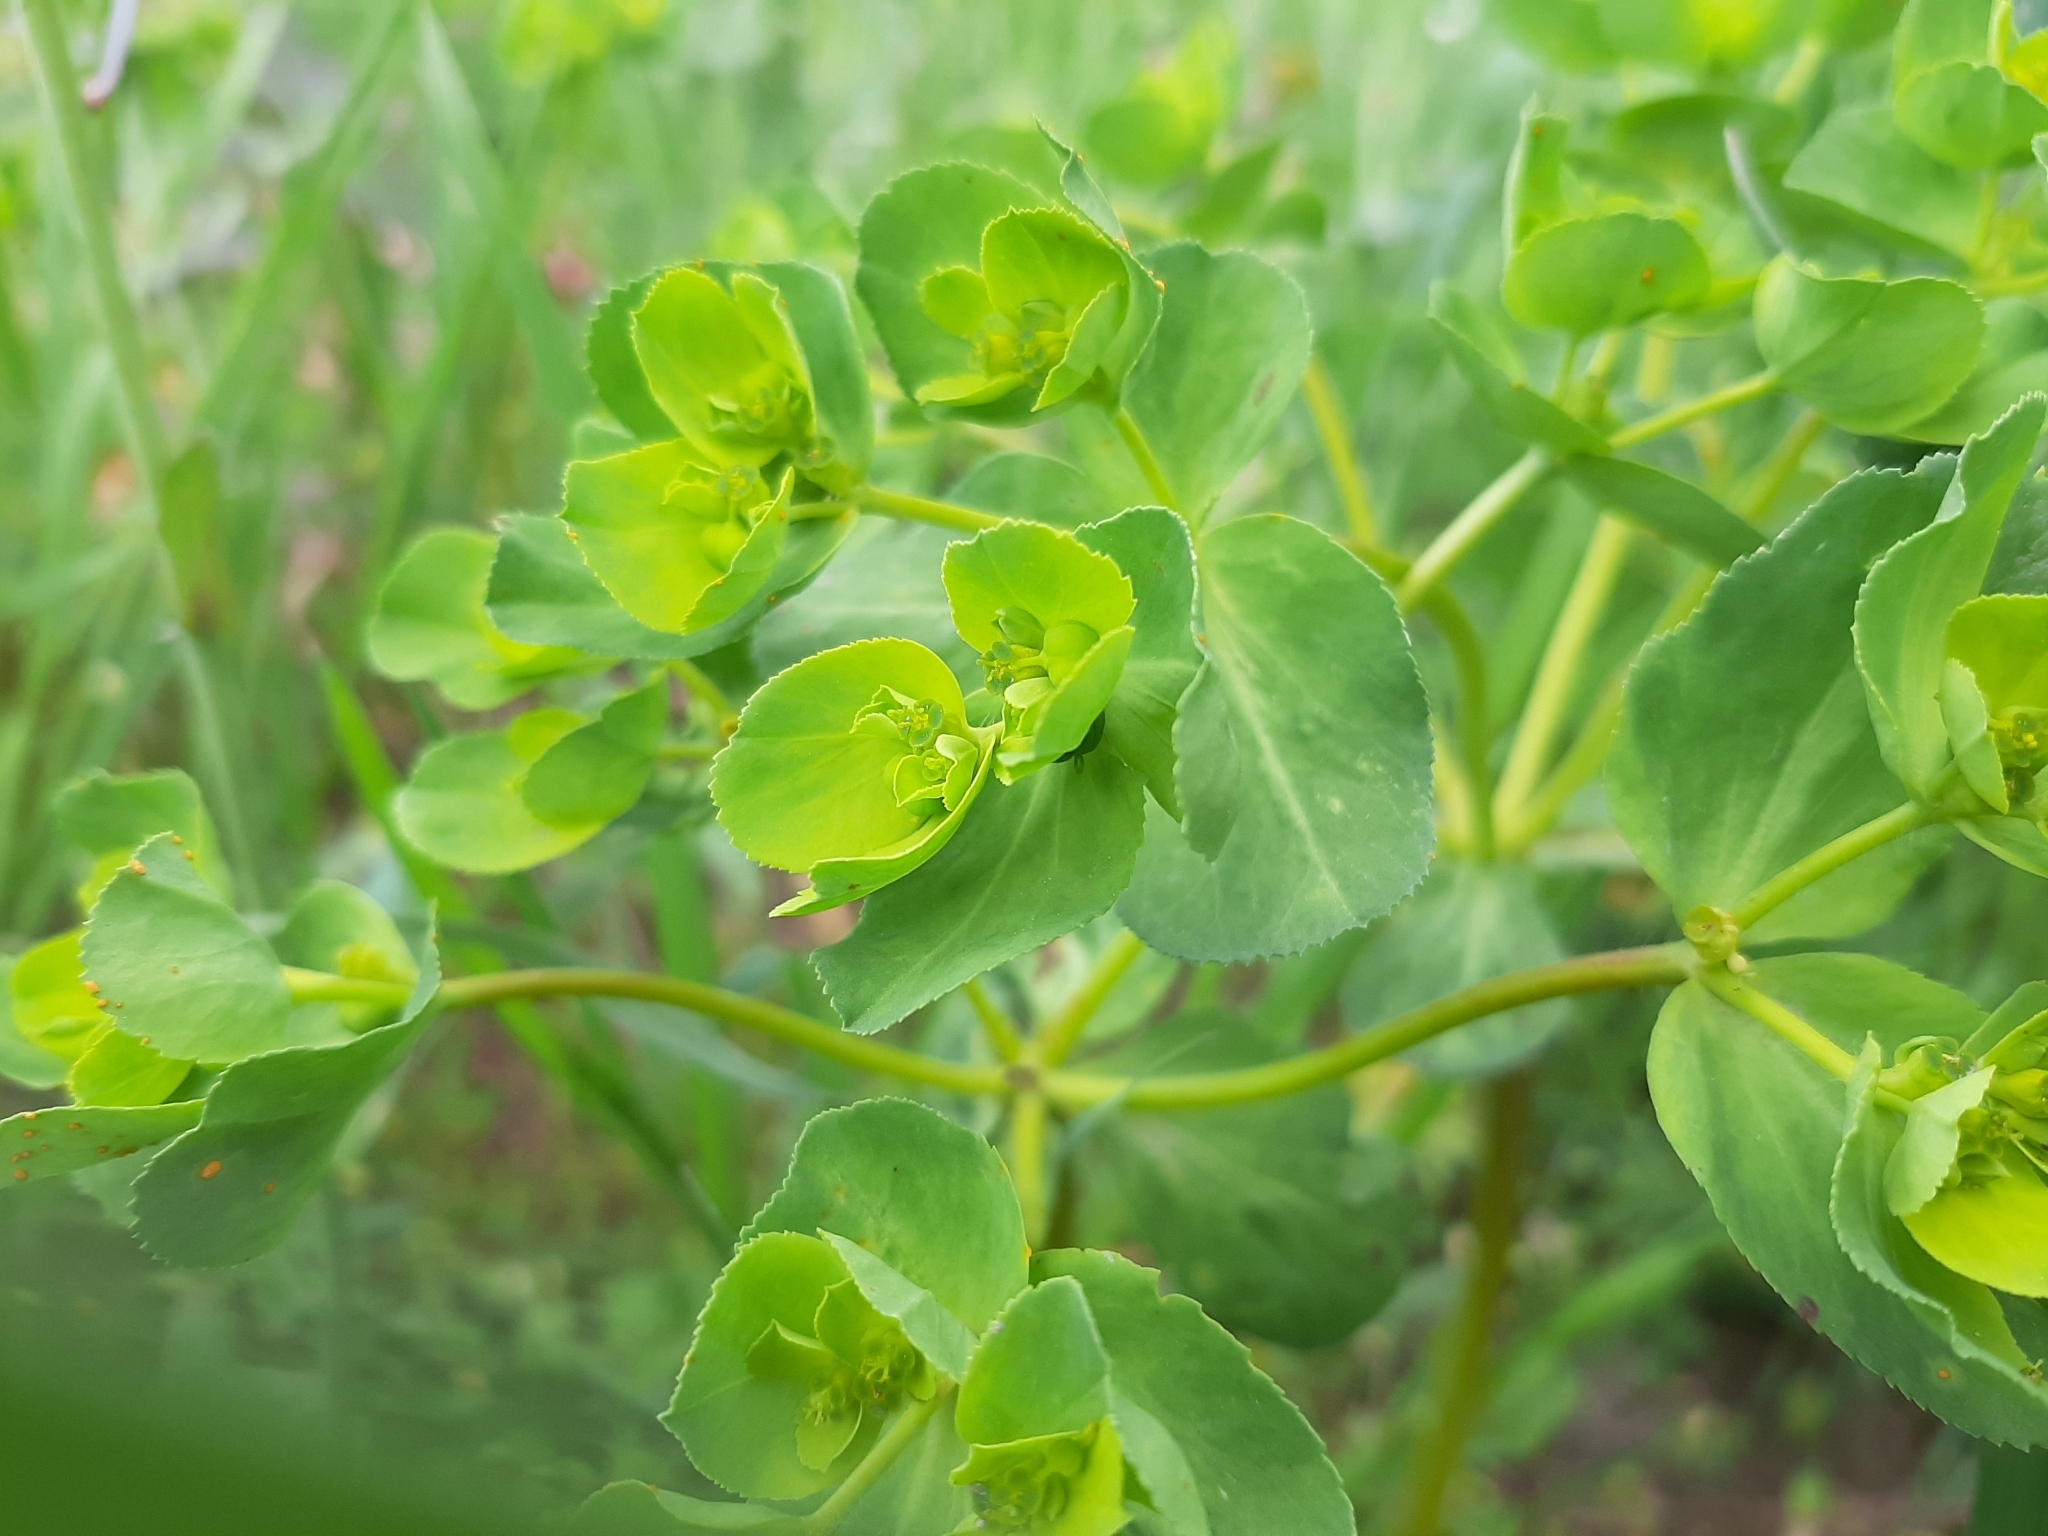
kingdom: Plantae
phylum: Tracheophyta
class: Magnoliopsida
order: Malpighiales
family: Euphorbiaceae
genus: Euphorbia
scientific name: Euphorbia helioscopia
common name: Sun spurge
